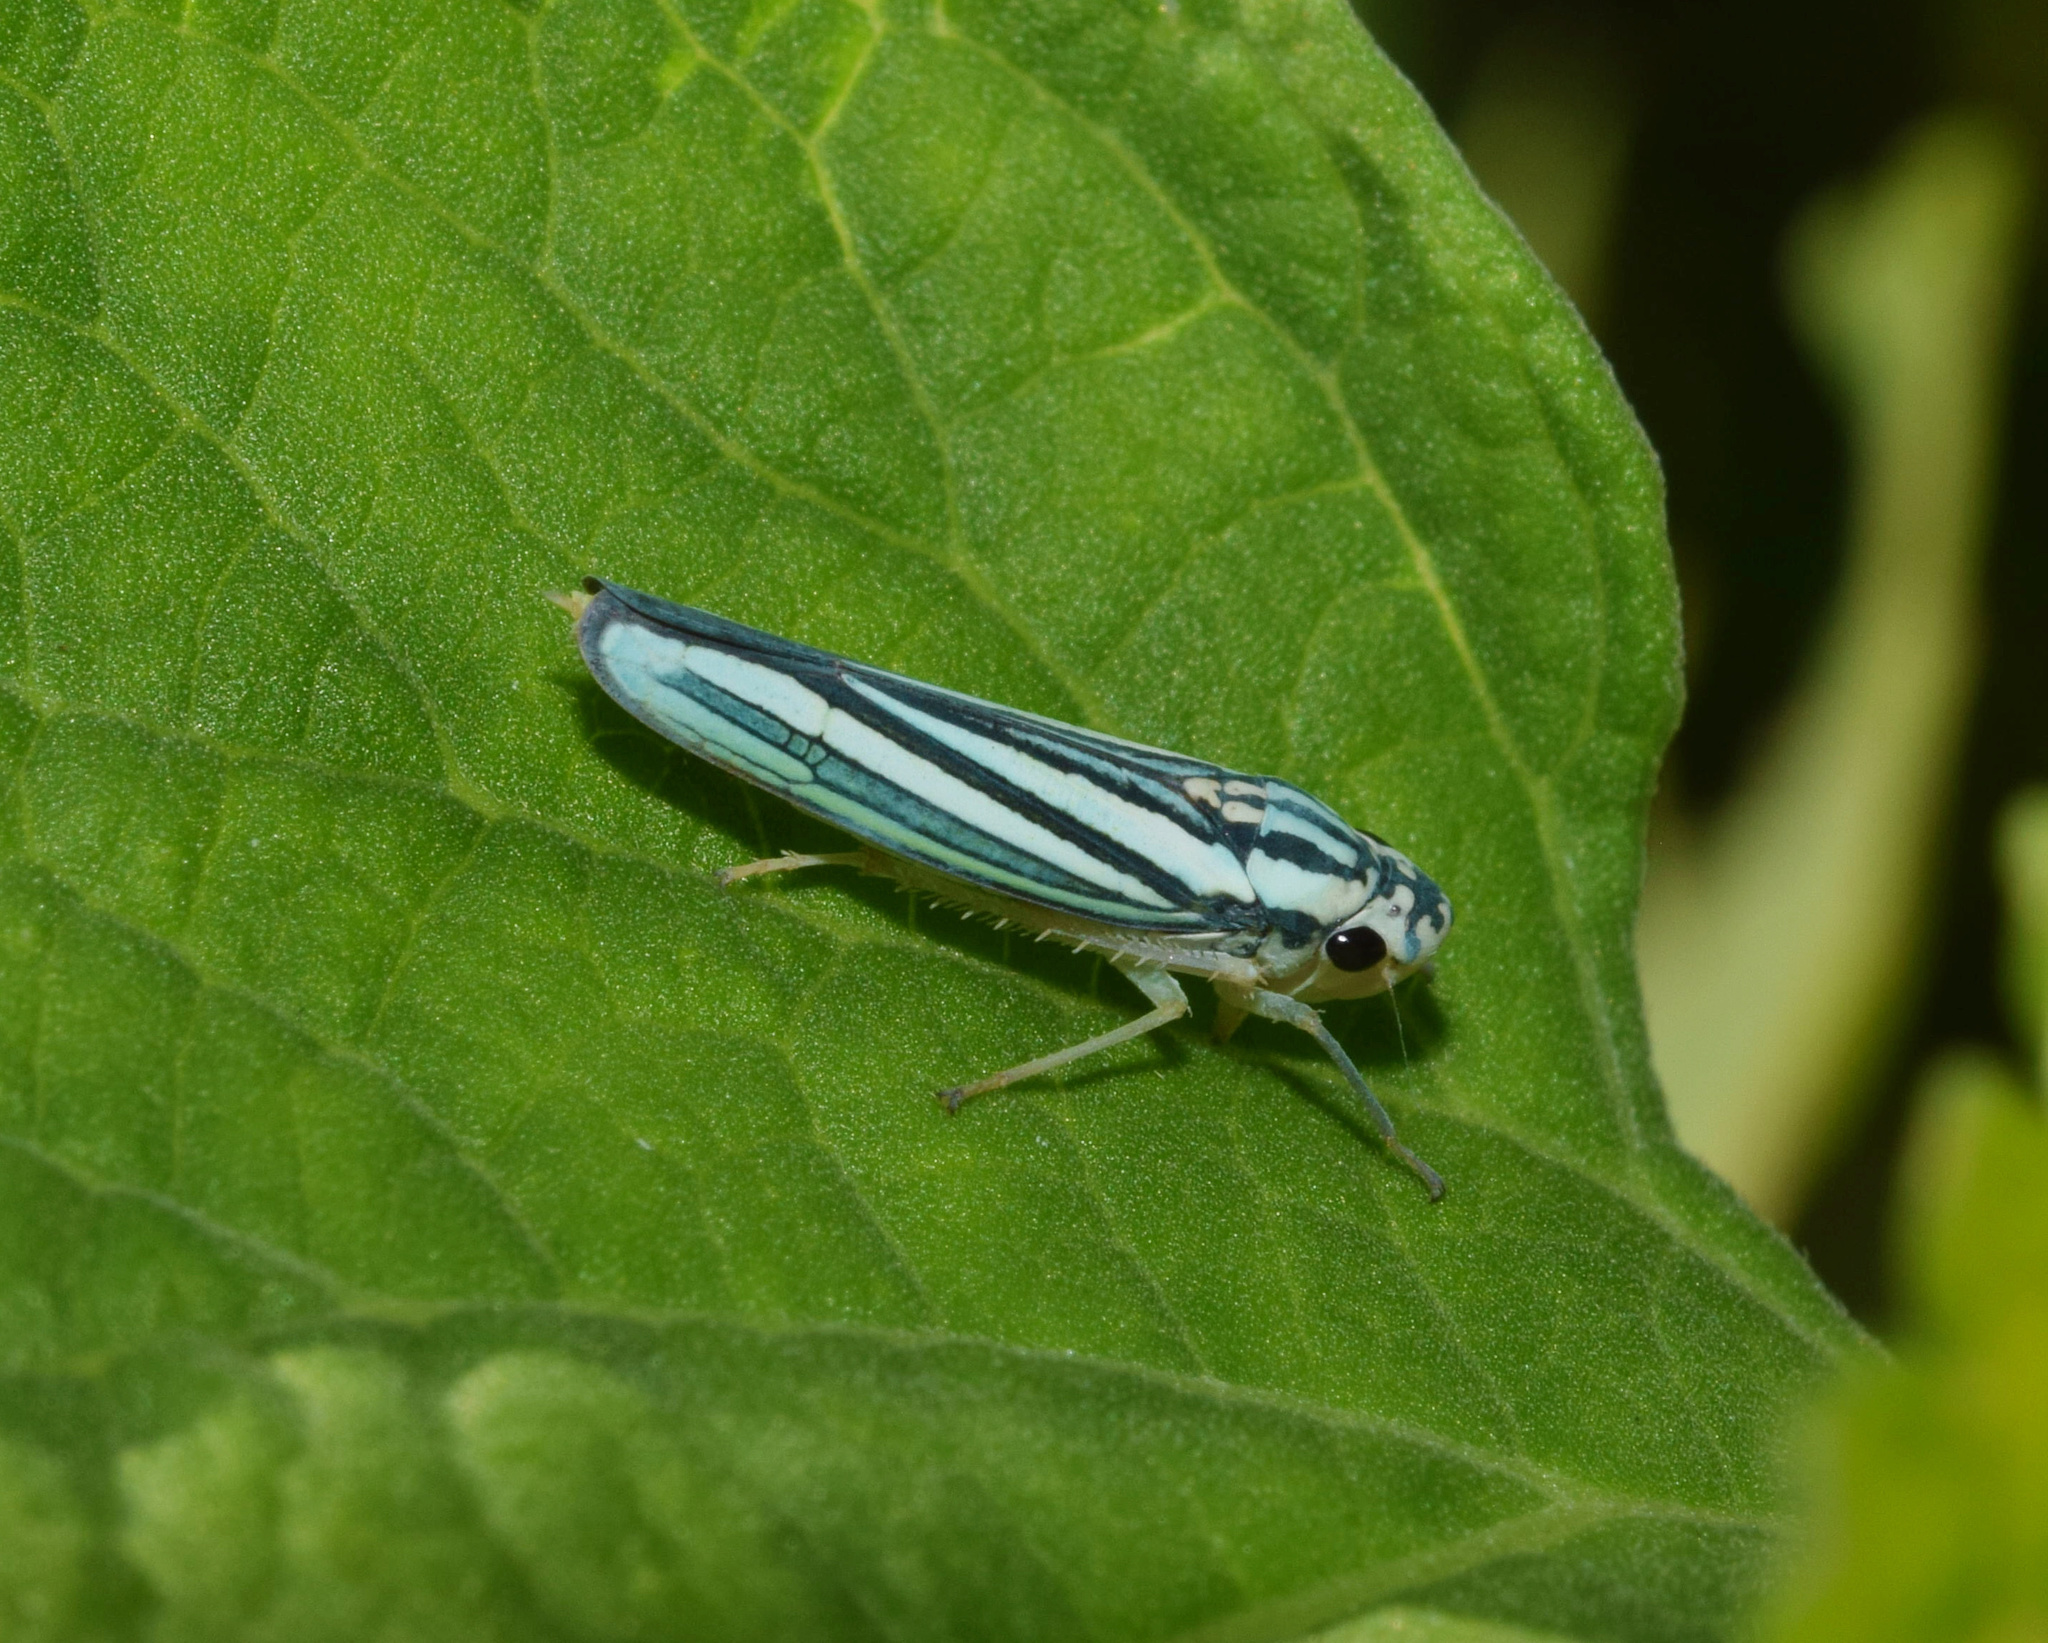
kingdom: Animalia
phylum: Arthropoda
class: Insecta
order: Hemiptera
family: Cicadellidae
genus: Tettigoniella
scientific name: Tettigoniella cosmopolita
